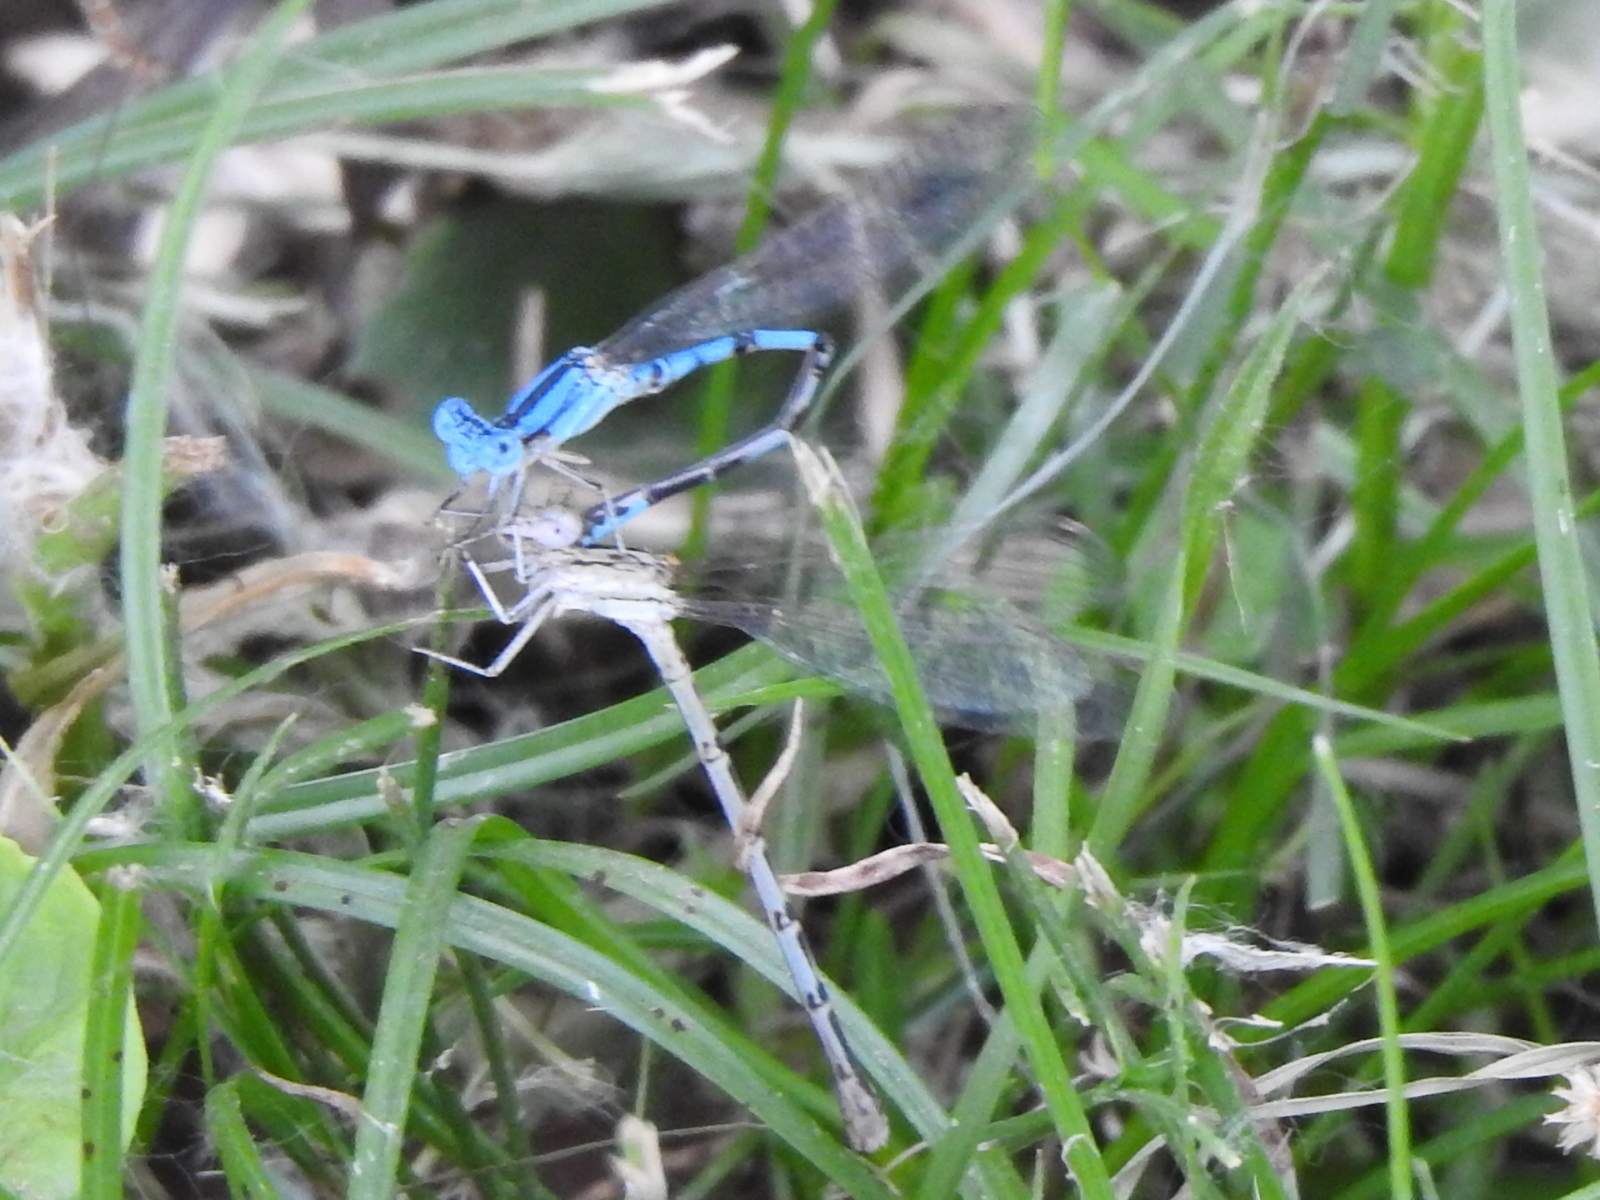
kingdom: Animalia
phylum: Arthropoda
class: Insecta
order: Odonata
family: Coenagrionidae
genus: Argia
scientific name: Argia nahuana
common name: Aztec dancer
